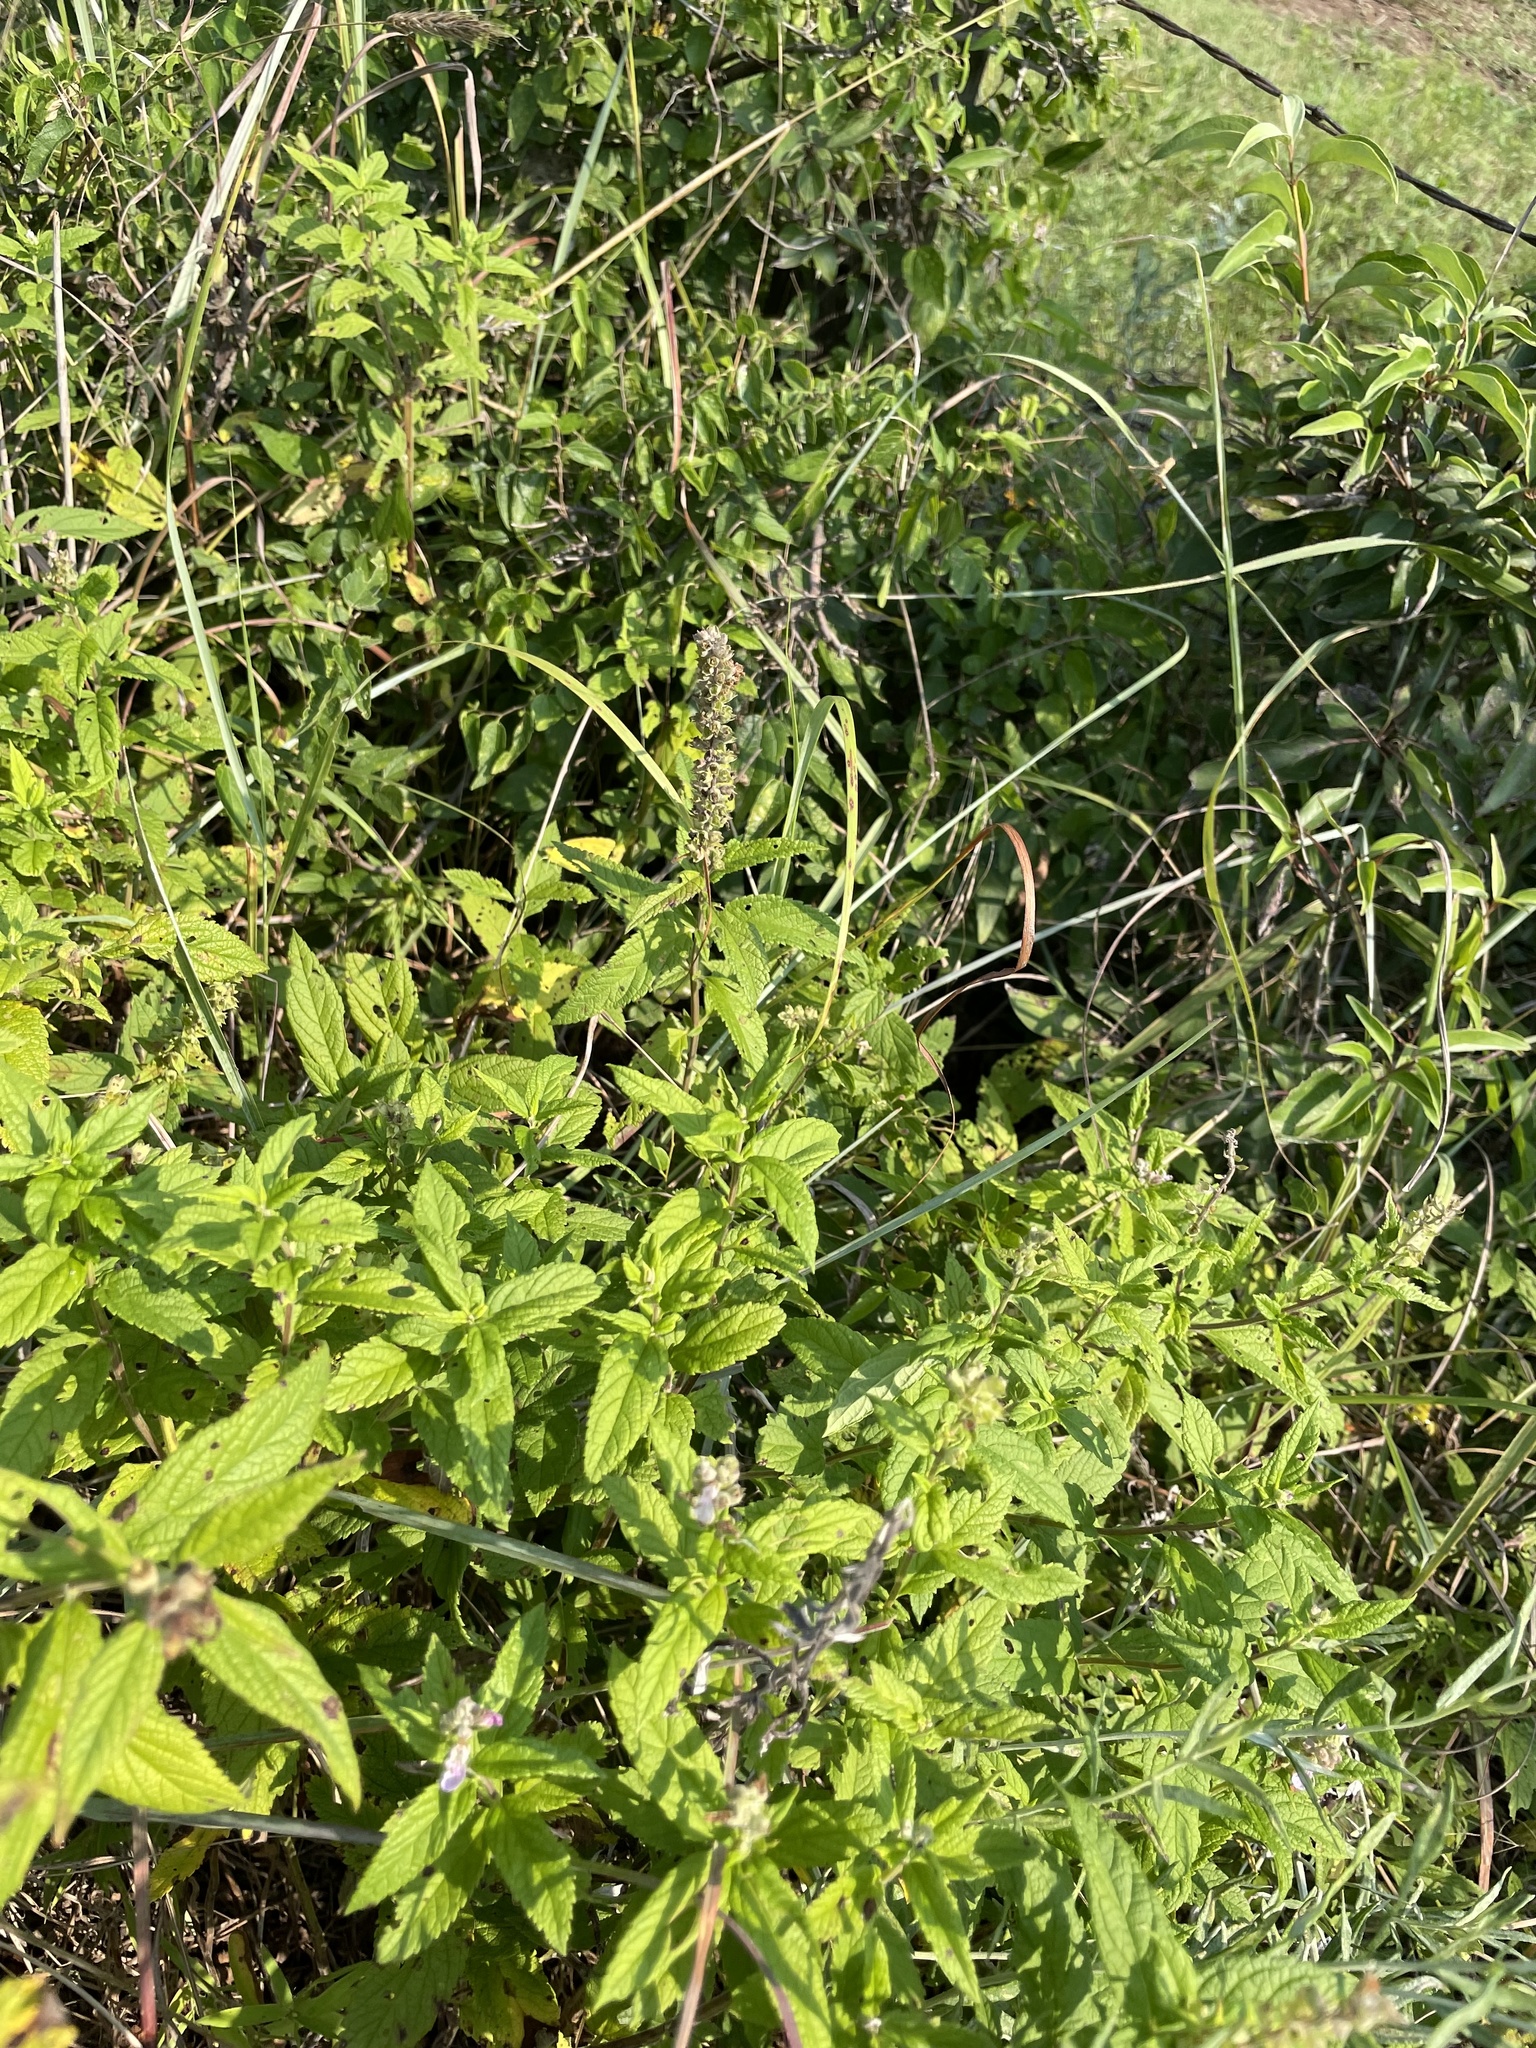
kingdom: Plantae
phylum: Tracheophyta
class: Magnoliopsida
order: Lamiales
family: Lamiaceae
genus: Teucrium
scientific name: Teucrium canadense
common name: American germander
